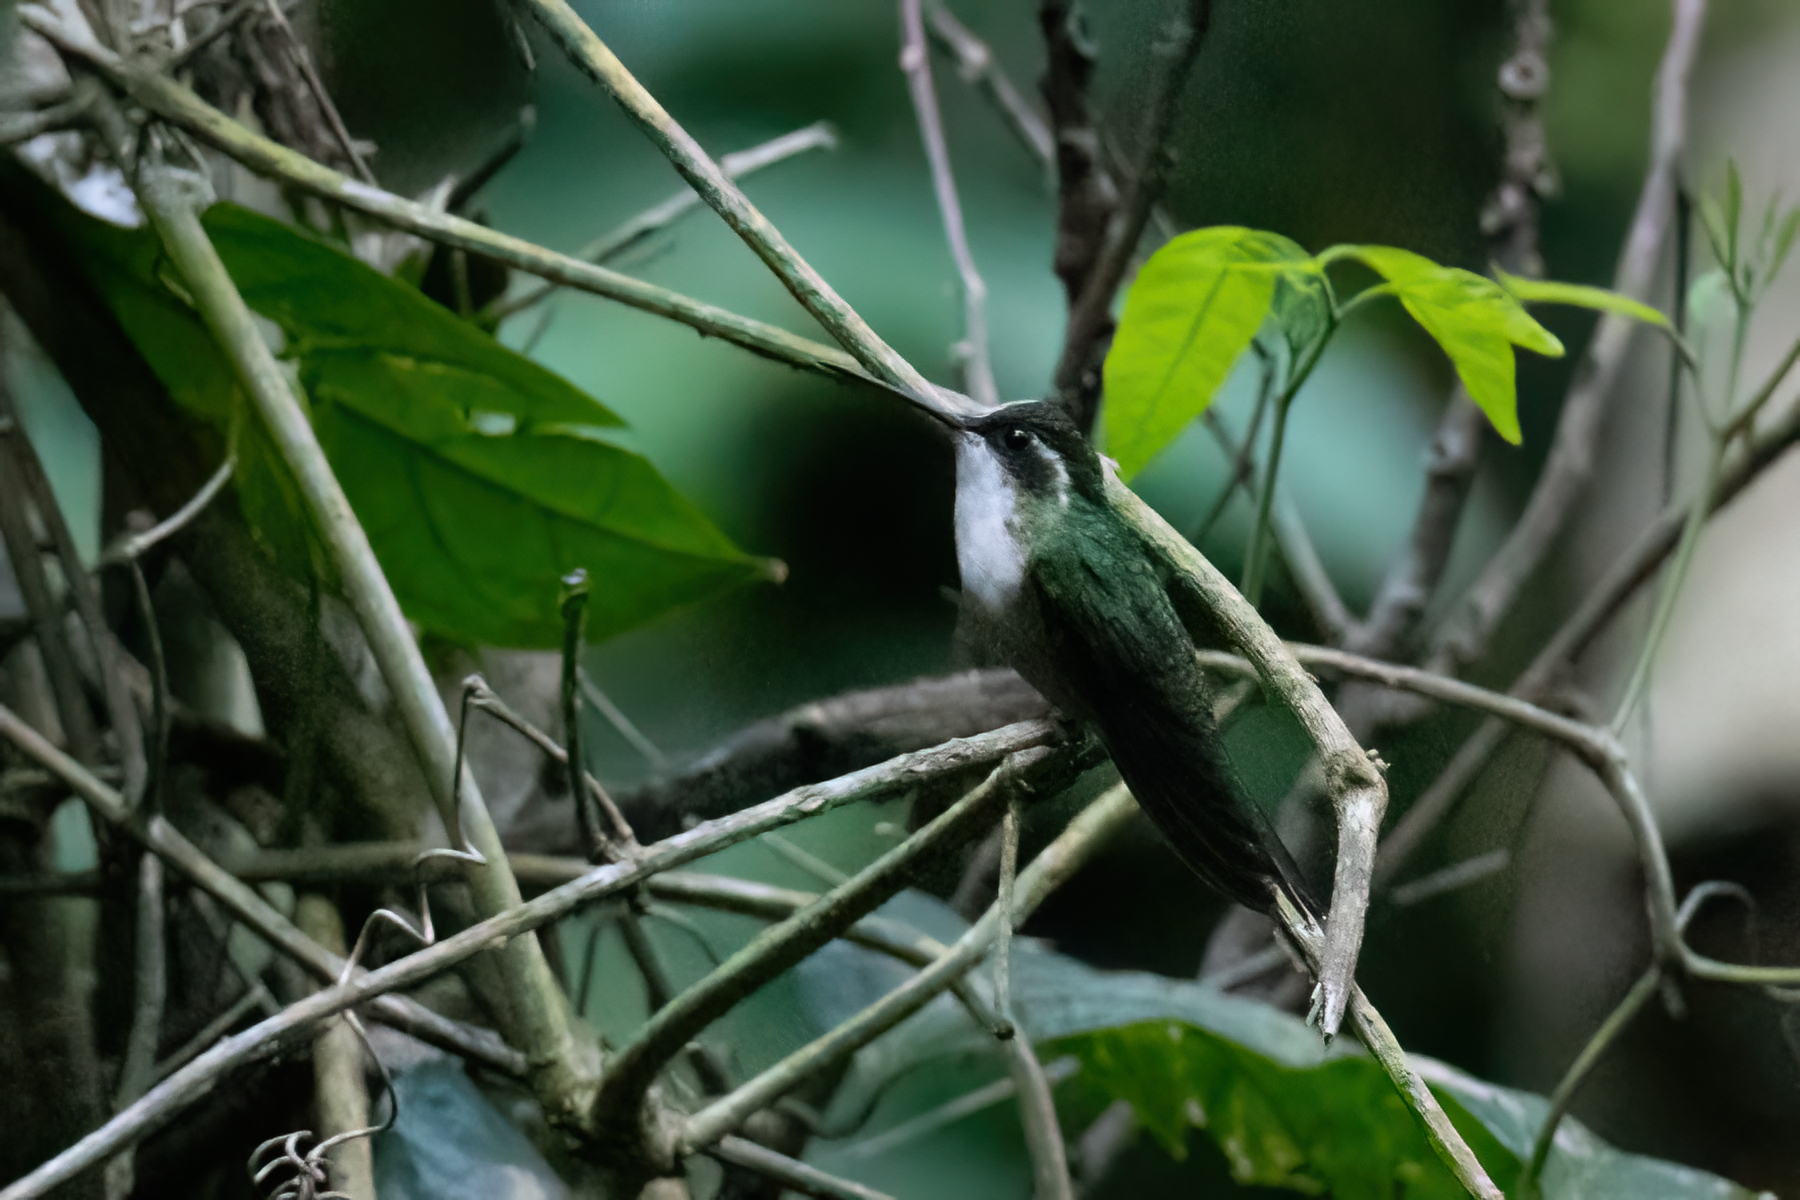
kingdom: Animalia
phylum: Chordata
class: Aves
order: Apodiformes
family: Trochilidae
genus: Lampornis
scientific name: Lampornis viridipallens
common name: Green-throated mountain-gem
